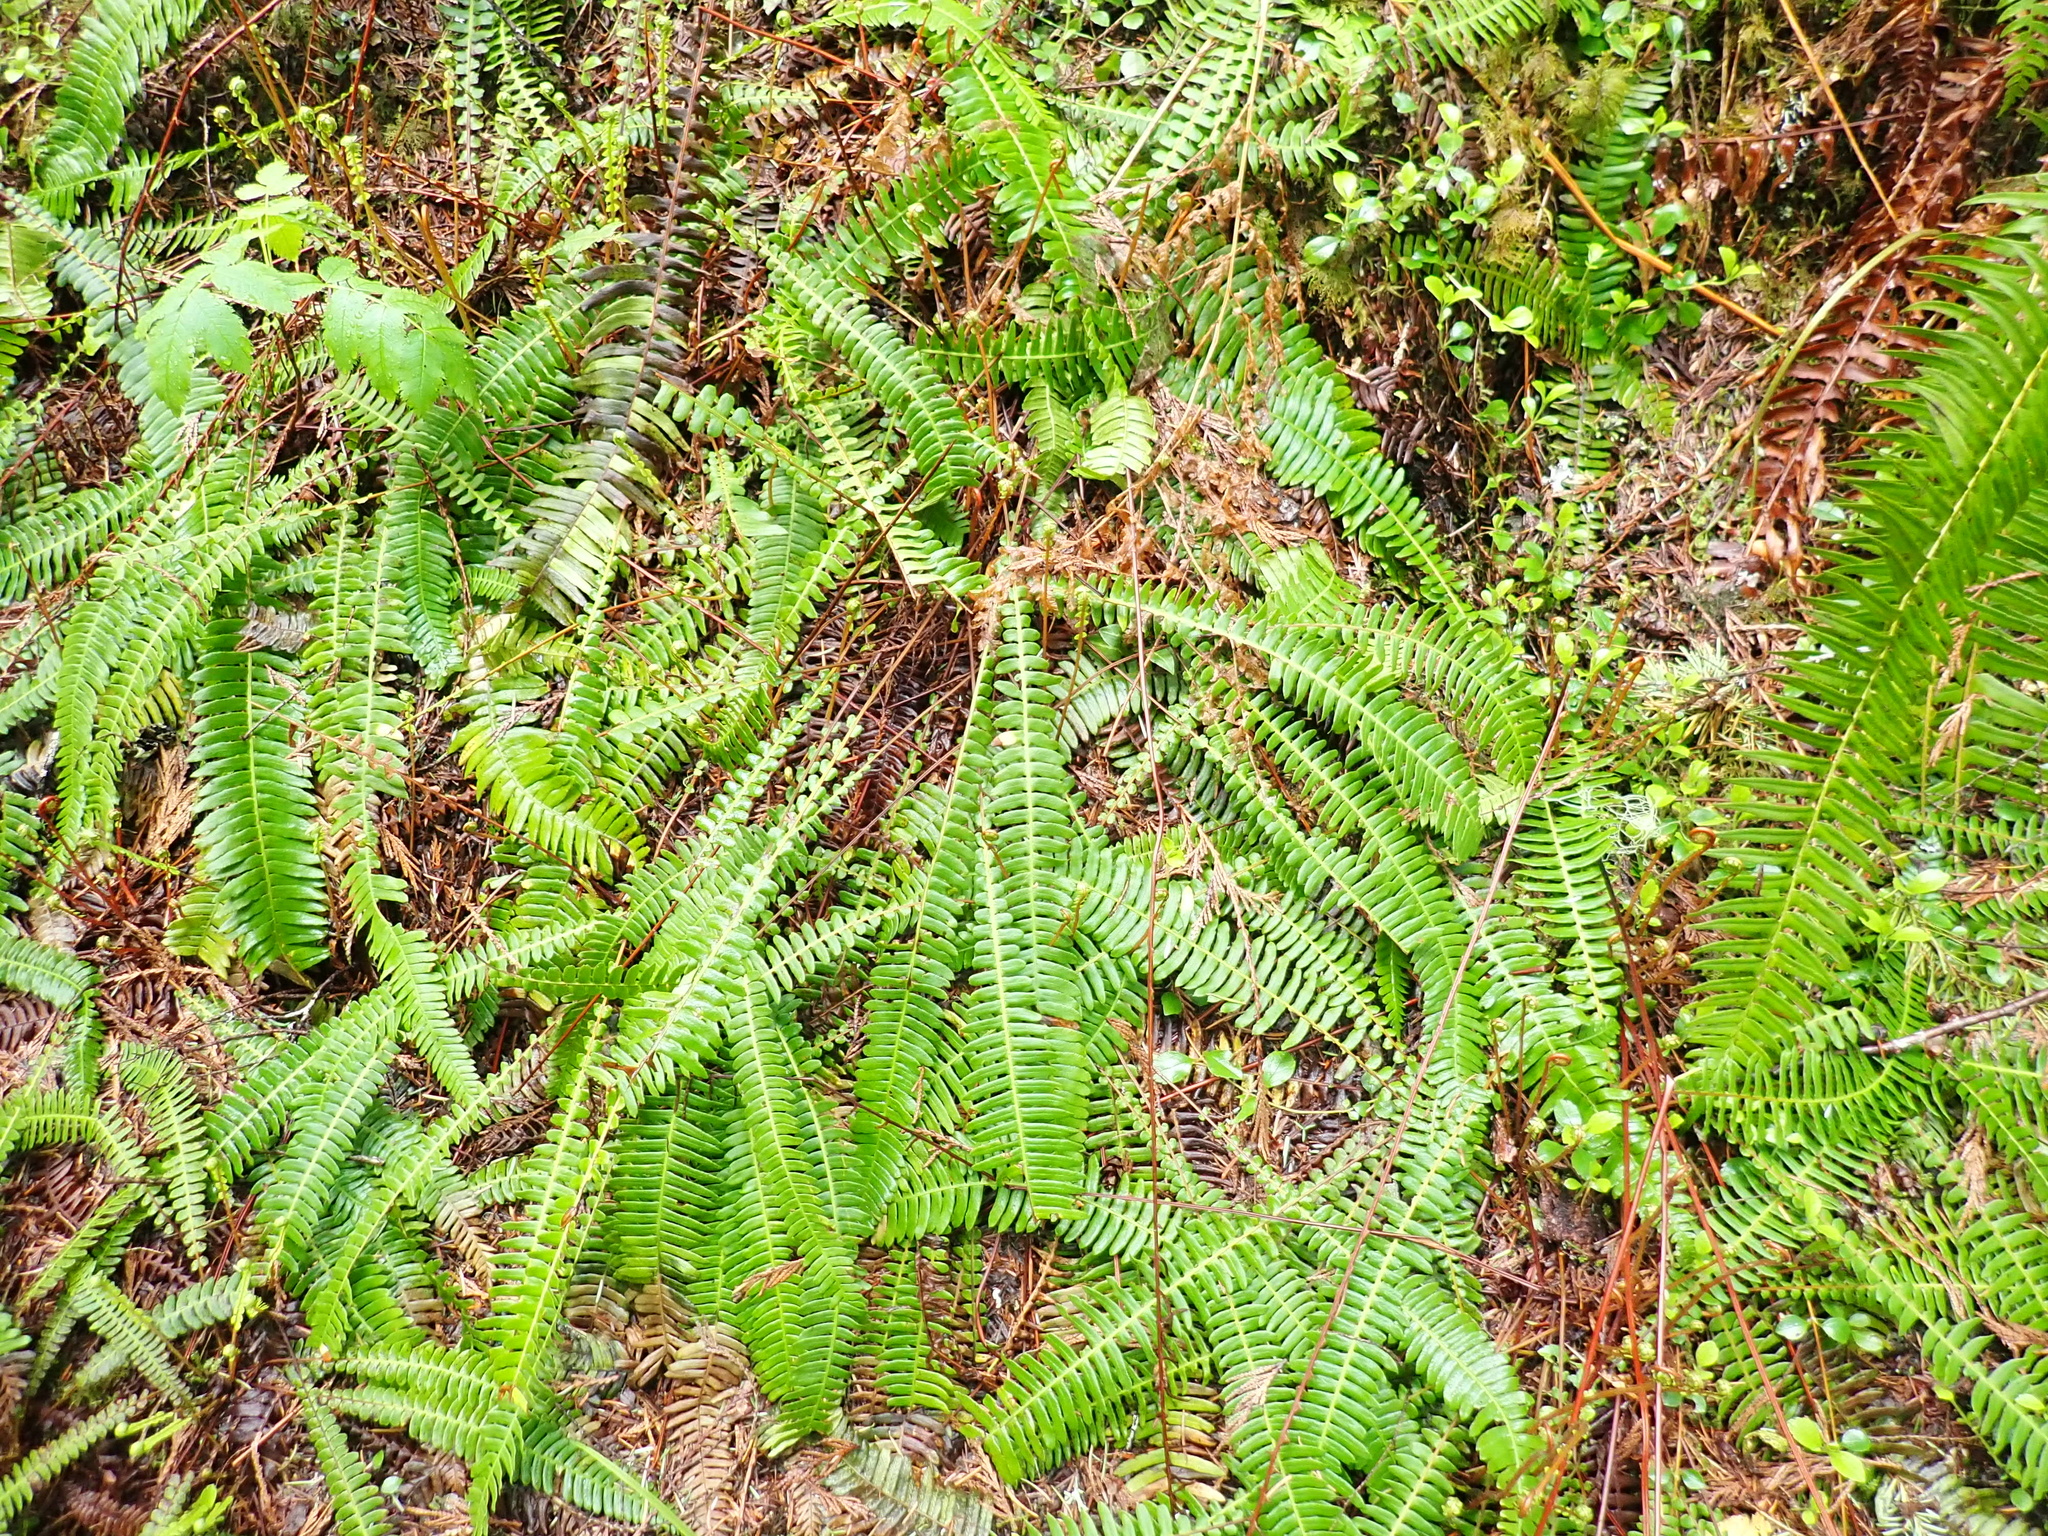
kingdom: Plantae
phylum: Tracheophyta
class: Polypodiopsida
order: Polypodiales
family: Blechnaceae
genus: Struthiopteris
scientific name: Struthiopteris spicant
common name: Deer fern
